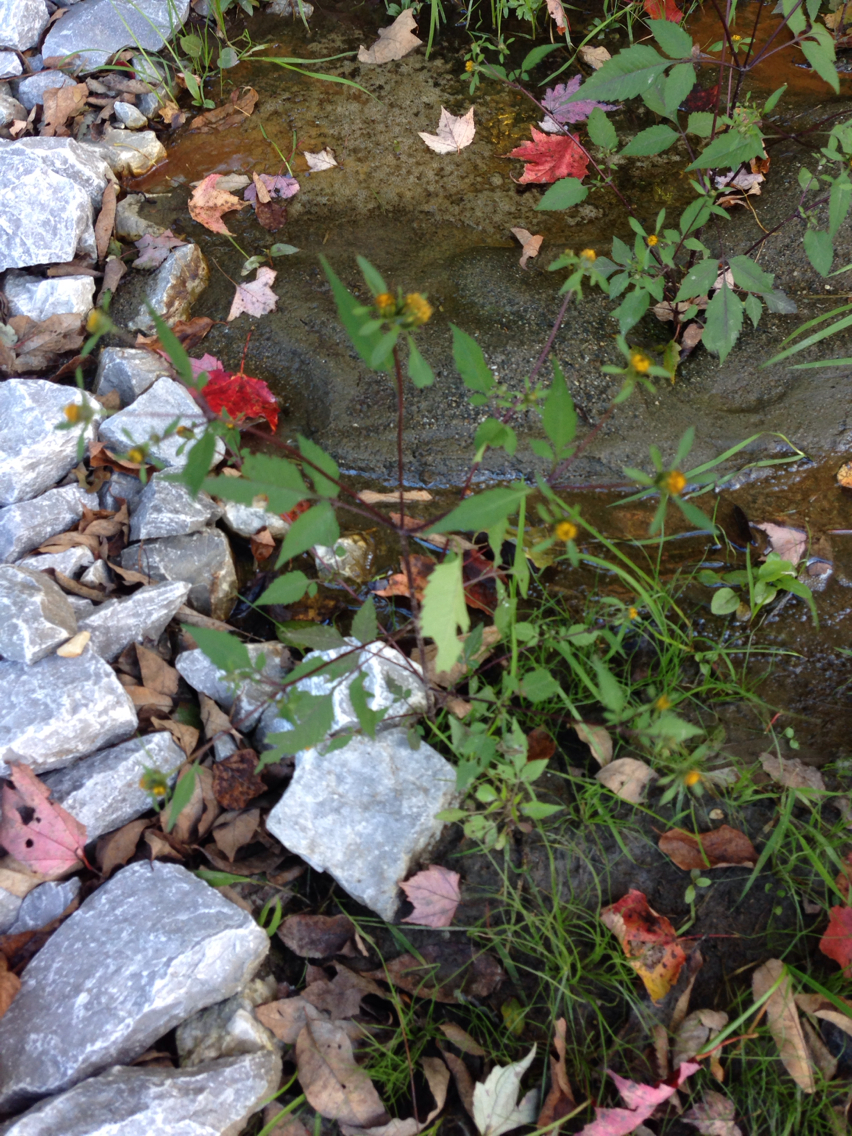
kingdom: Plantae
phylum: Tracheophyta
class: Magnoliopsida
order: Asterales
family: Asteraceae
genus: Bidens
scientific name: Bidens frondosa
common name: Beggarticks
